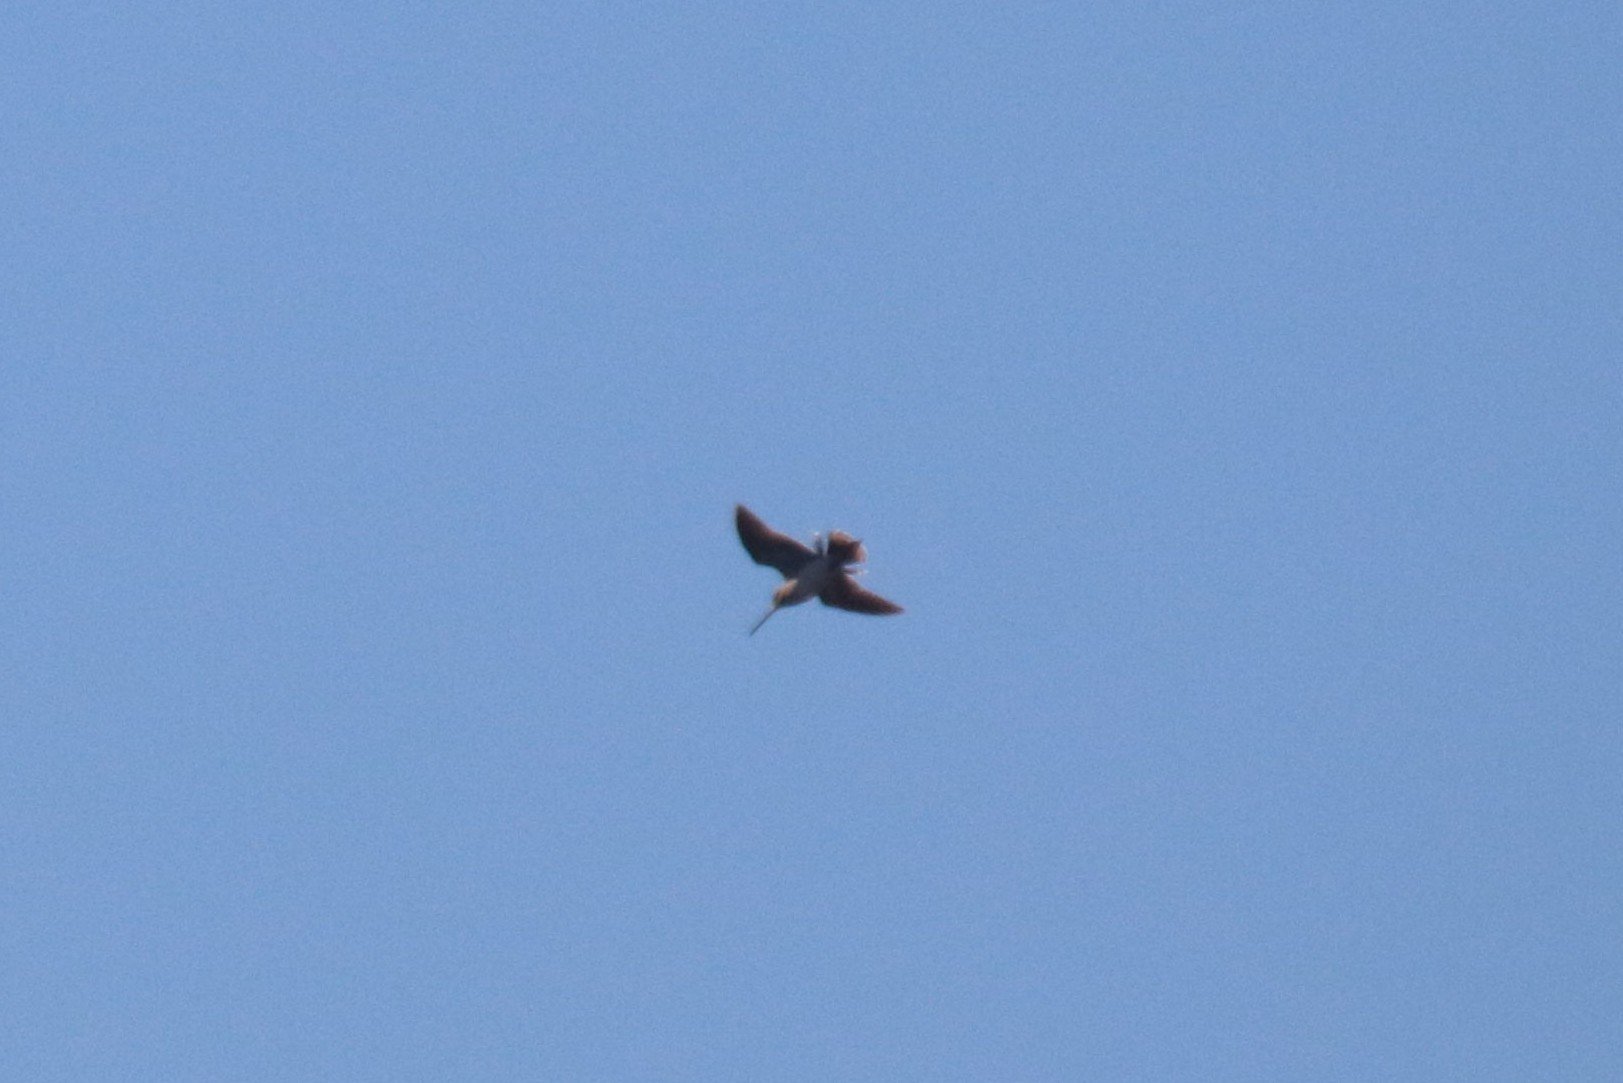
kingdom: Animalia
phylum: Chordata
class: Aves
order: Charadriiformes
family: Scolopacidae
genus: Gallinago
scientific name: Gallinago gallinago
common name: Common snipe
